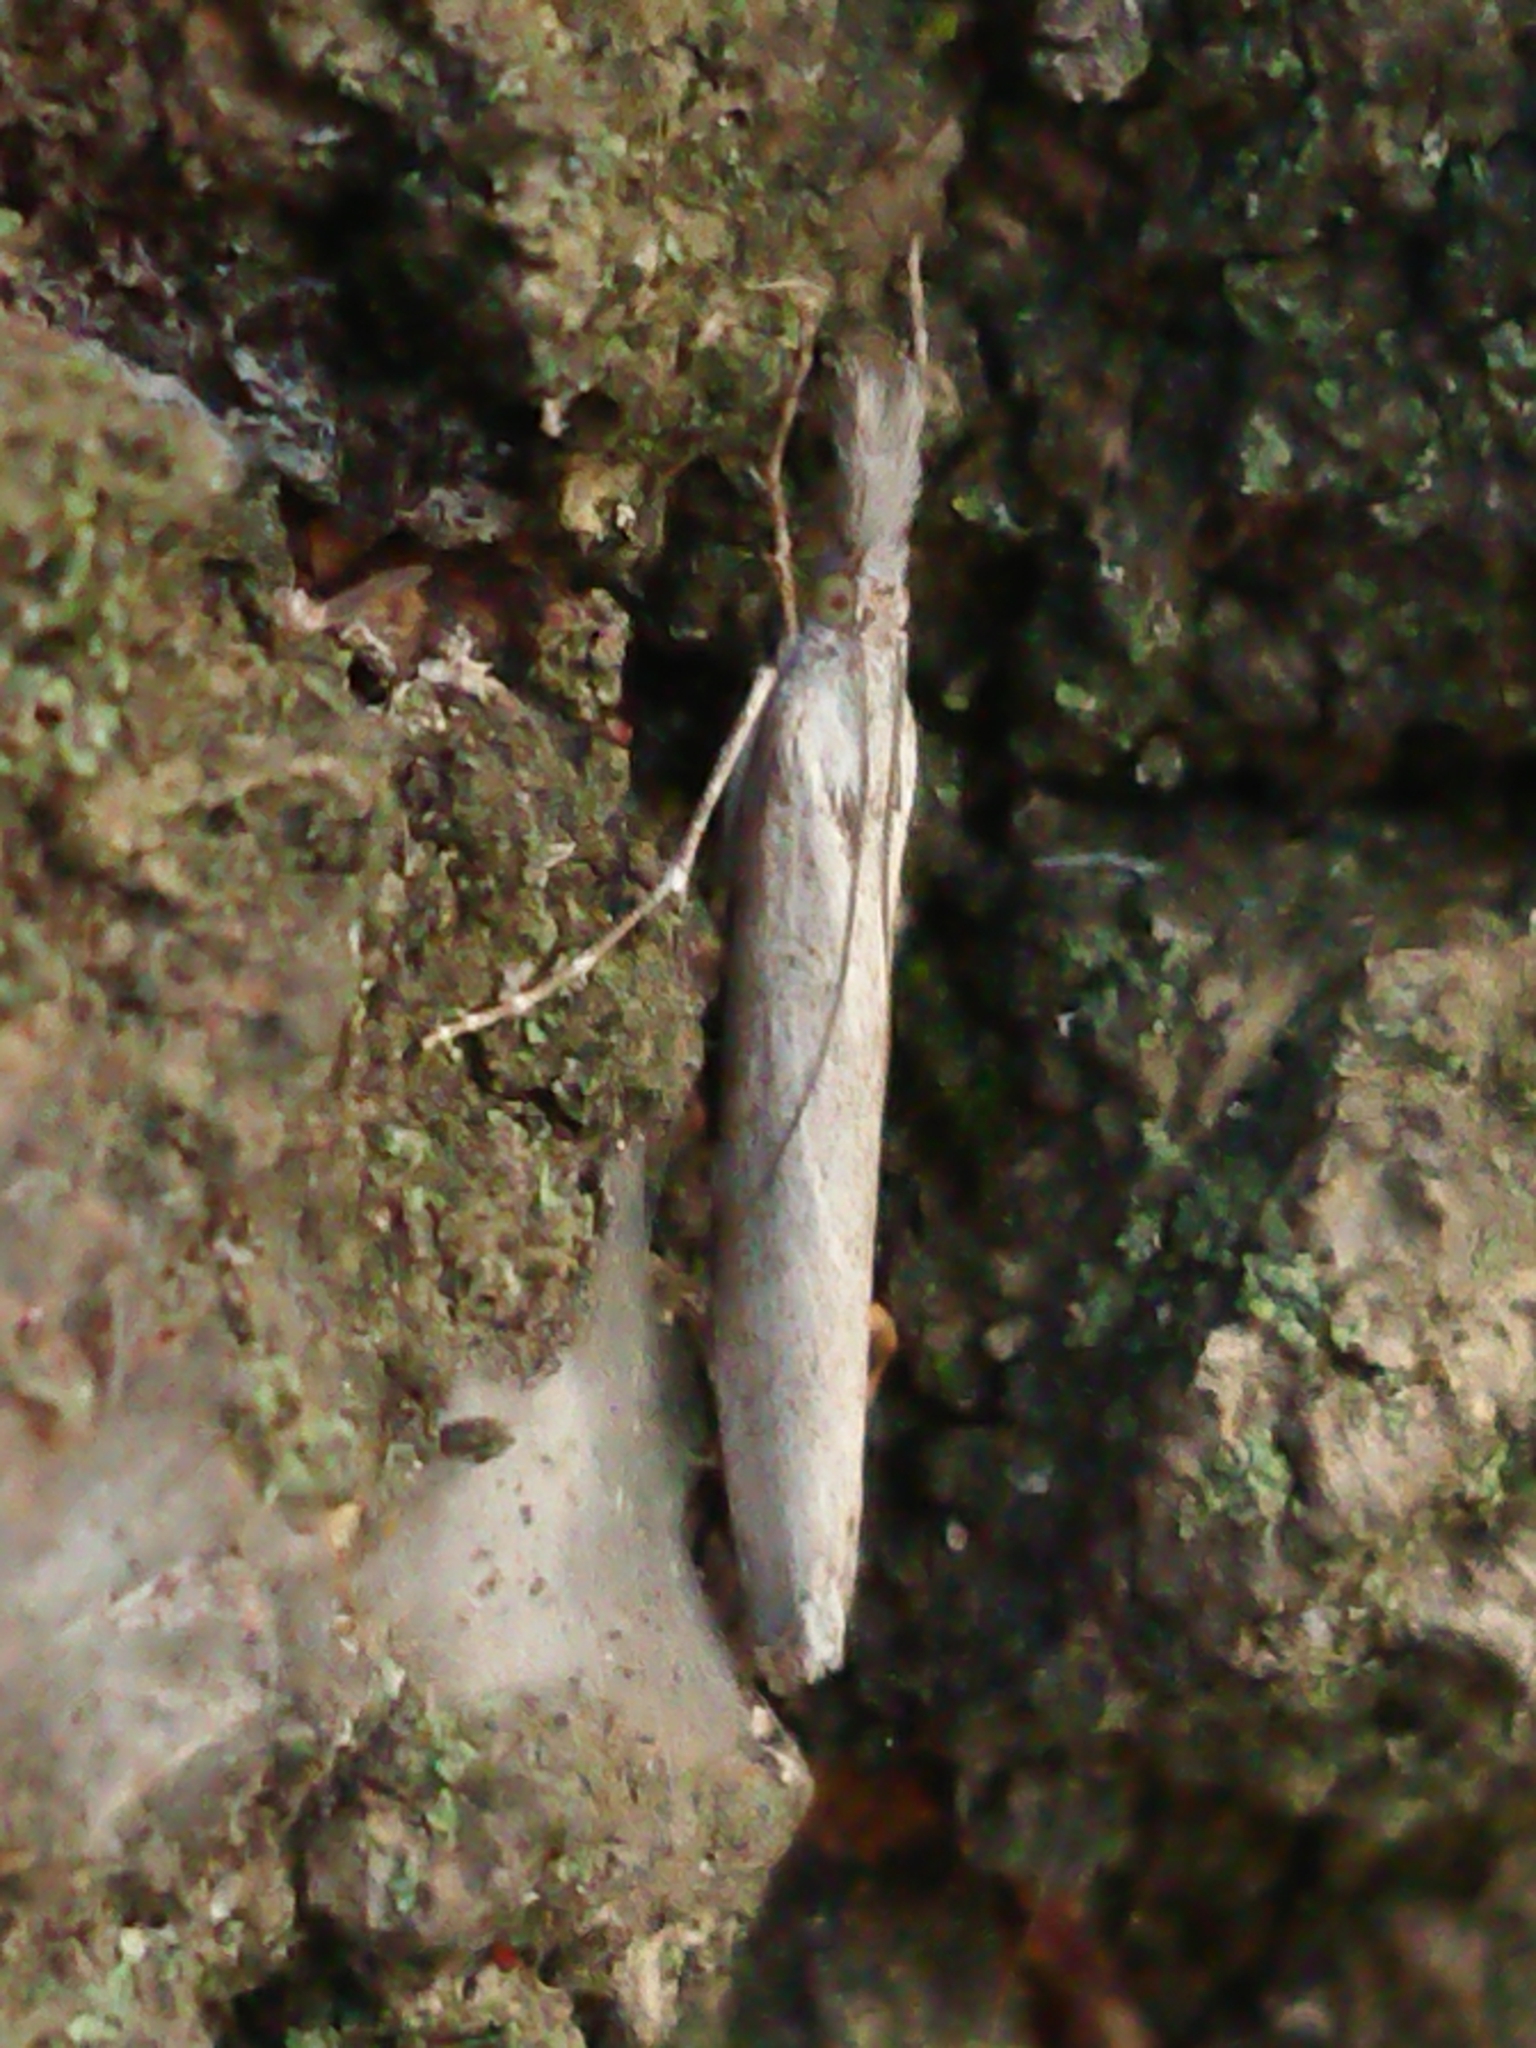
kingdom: Animalia
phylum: Arthropoda
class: Insecta
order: Lepidoptera
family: Crambidae
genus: Orocrambus
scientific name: Orocrambus cyclopicus
